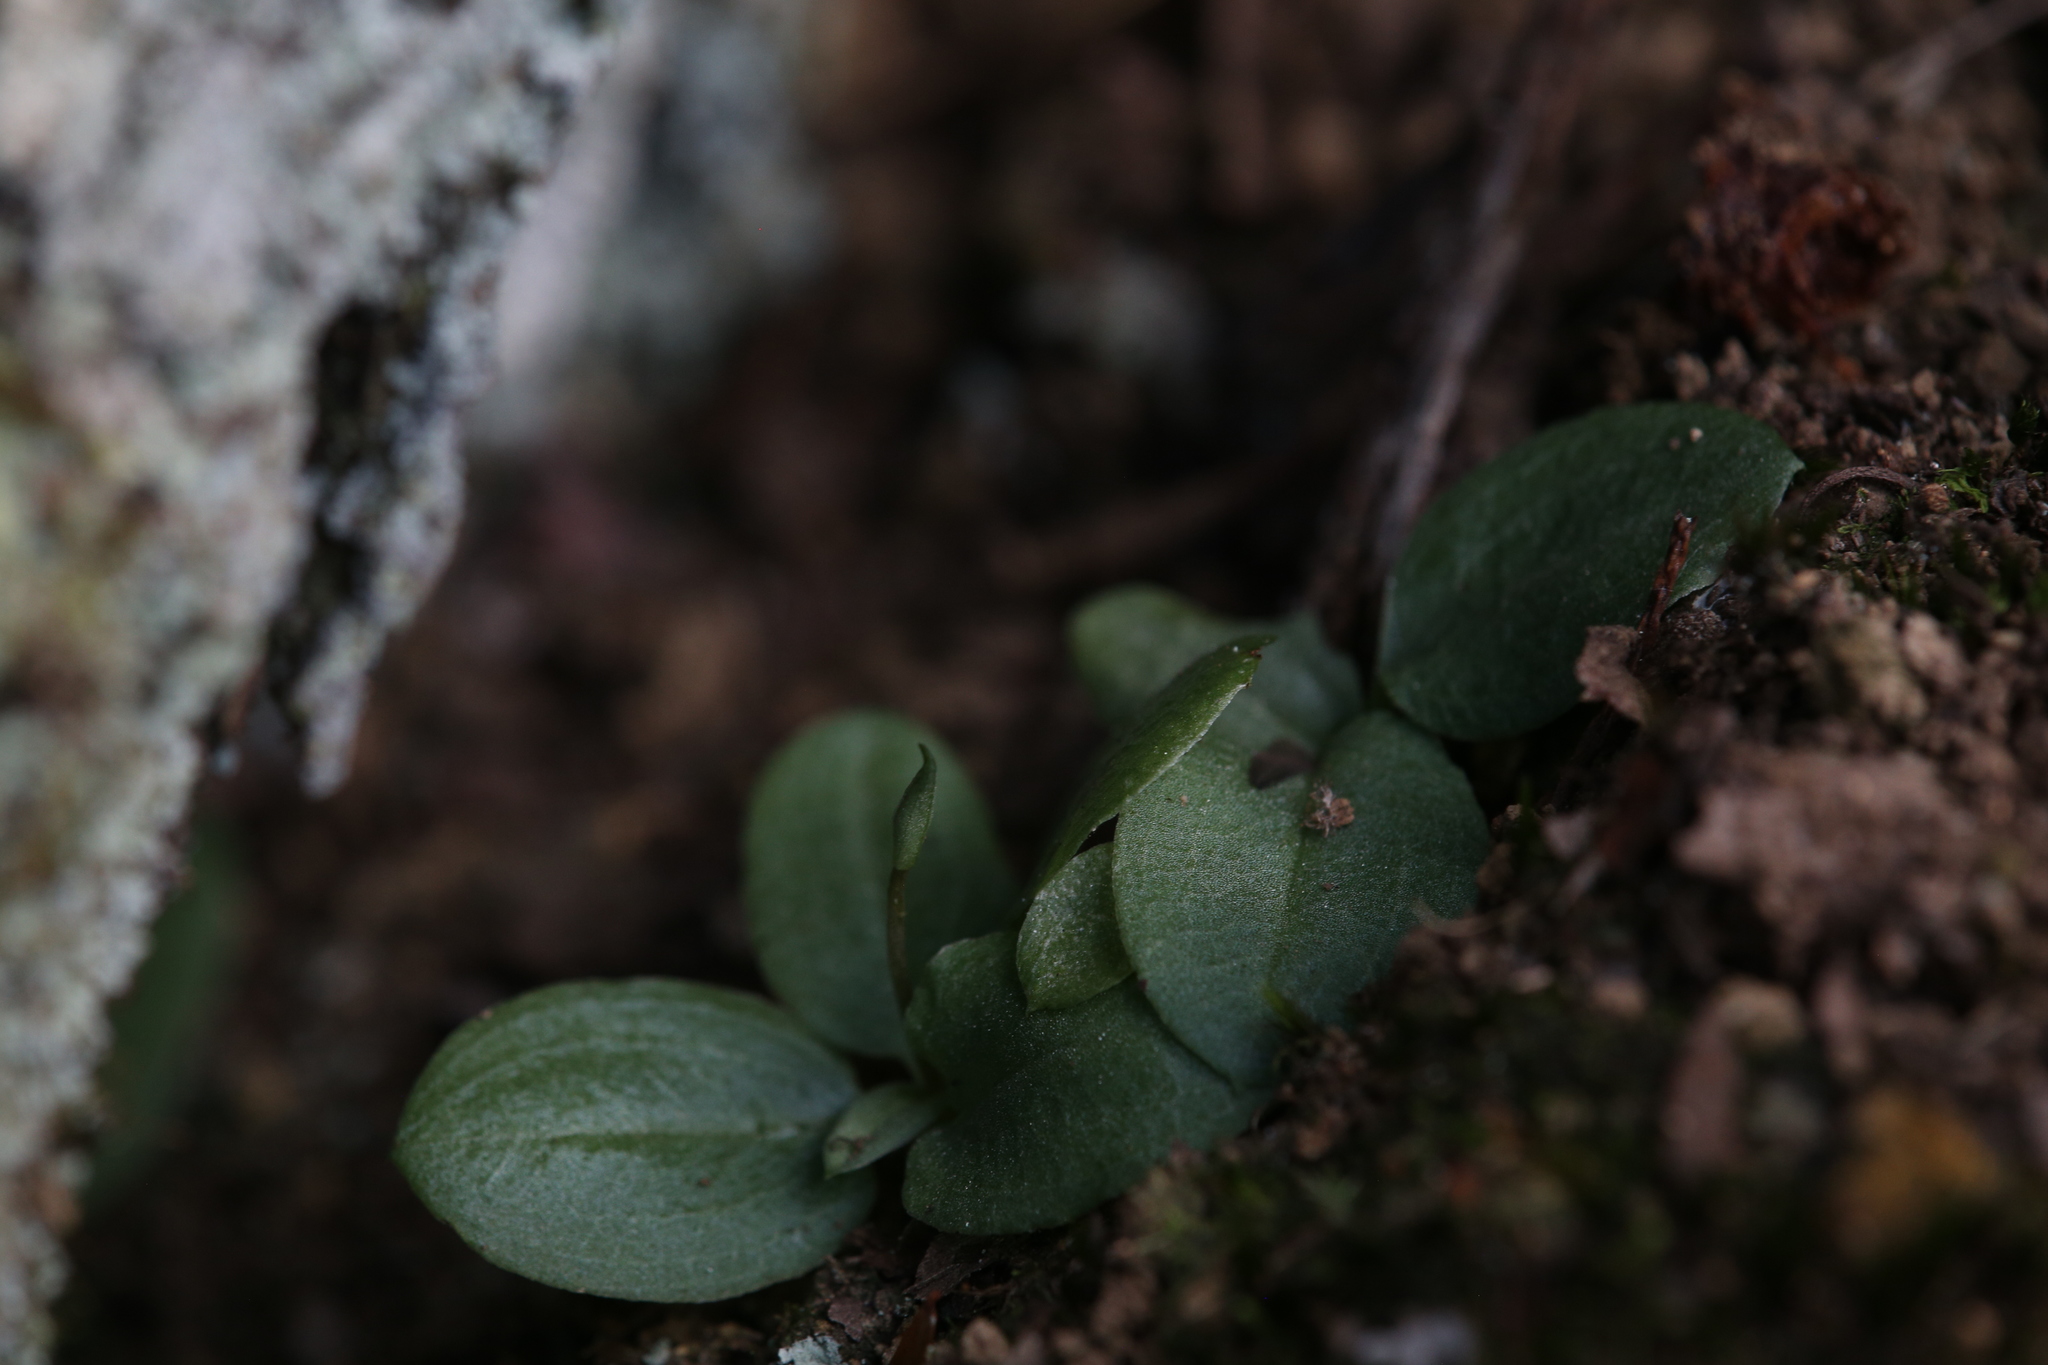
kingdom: Plantae
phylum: Tracheophyta
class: Liliopsida
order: Asparagales
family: Orchidaceae
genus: Pterostylis
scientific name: Pterostylis depauperata
